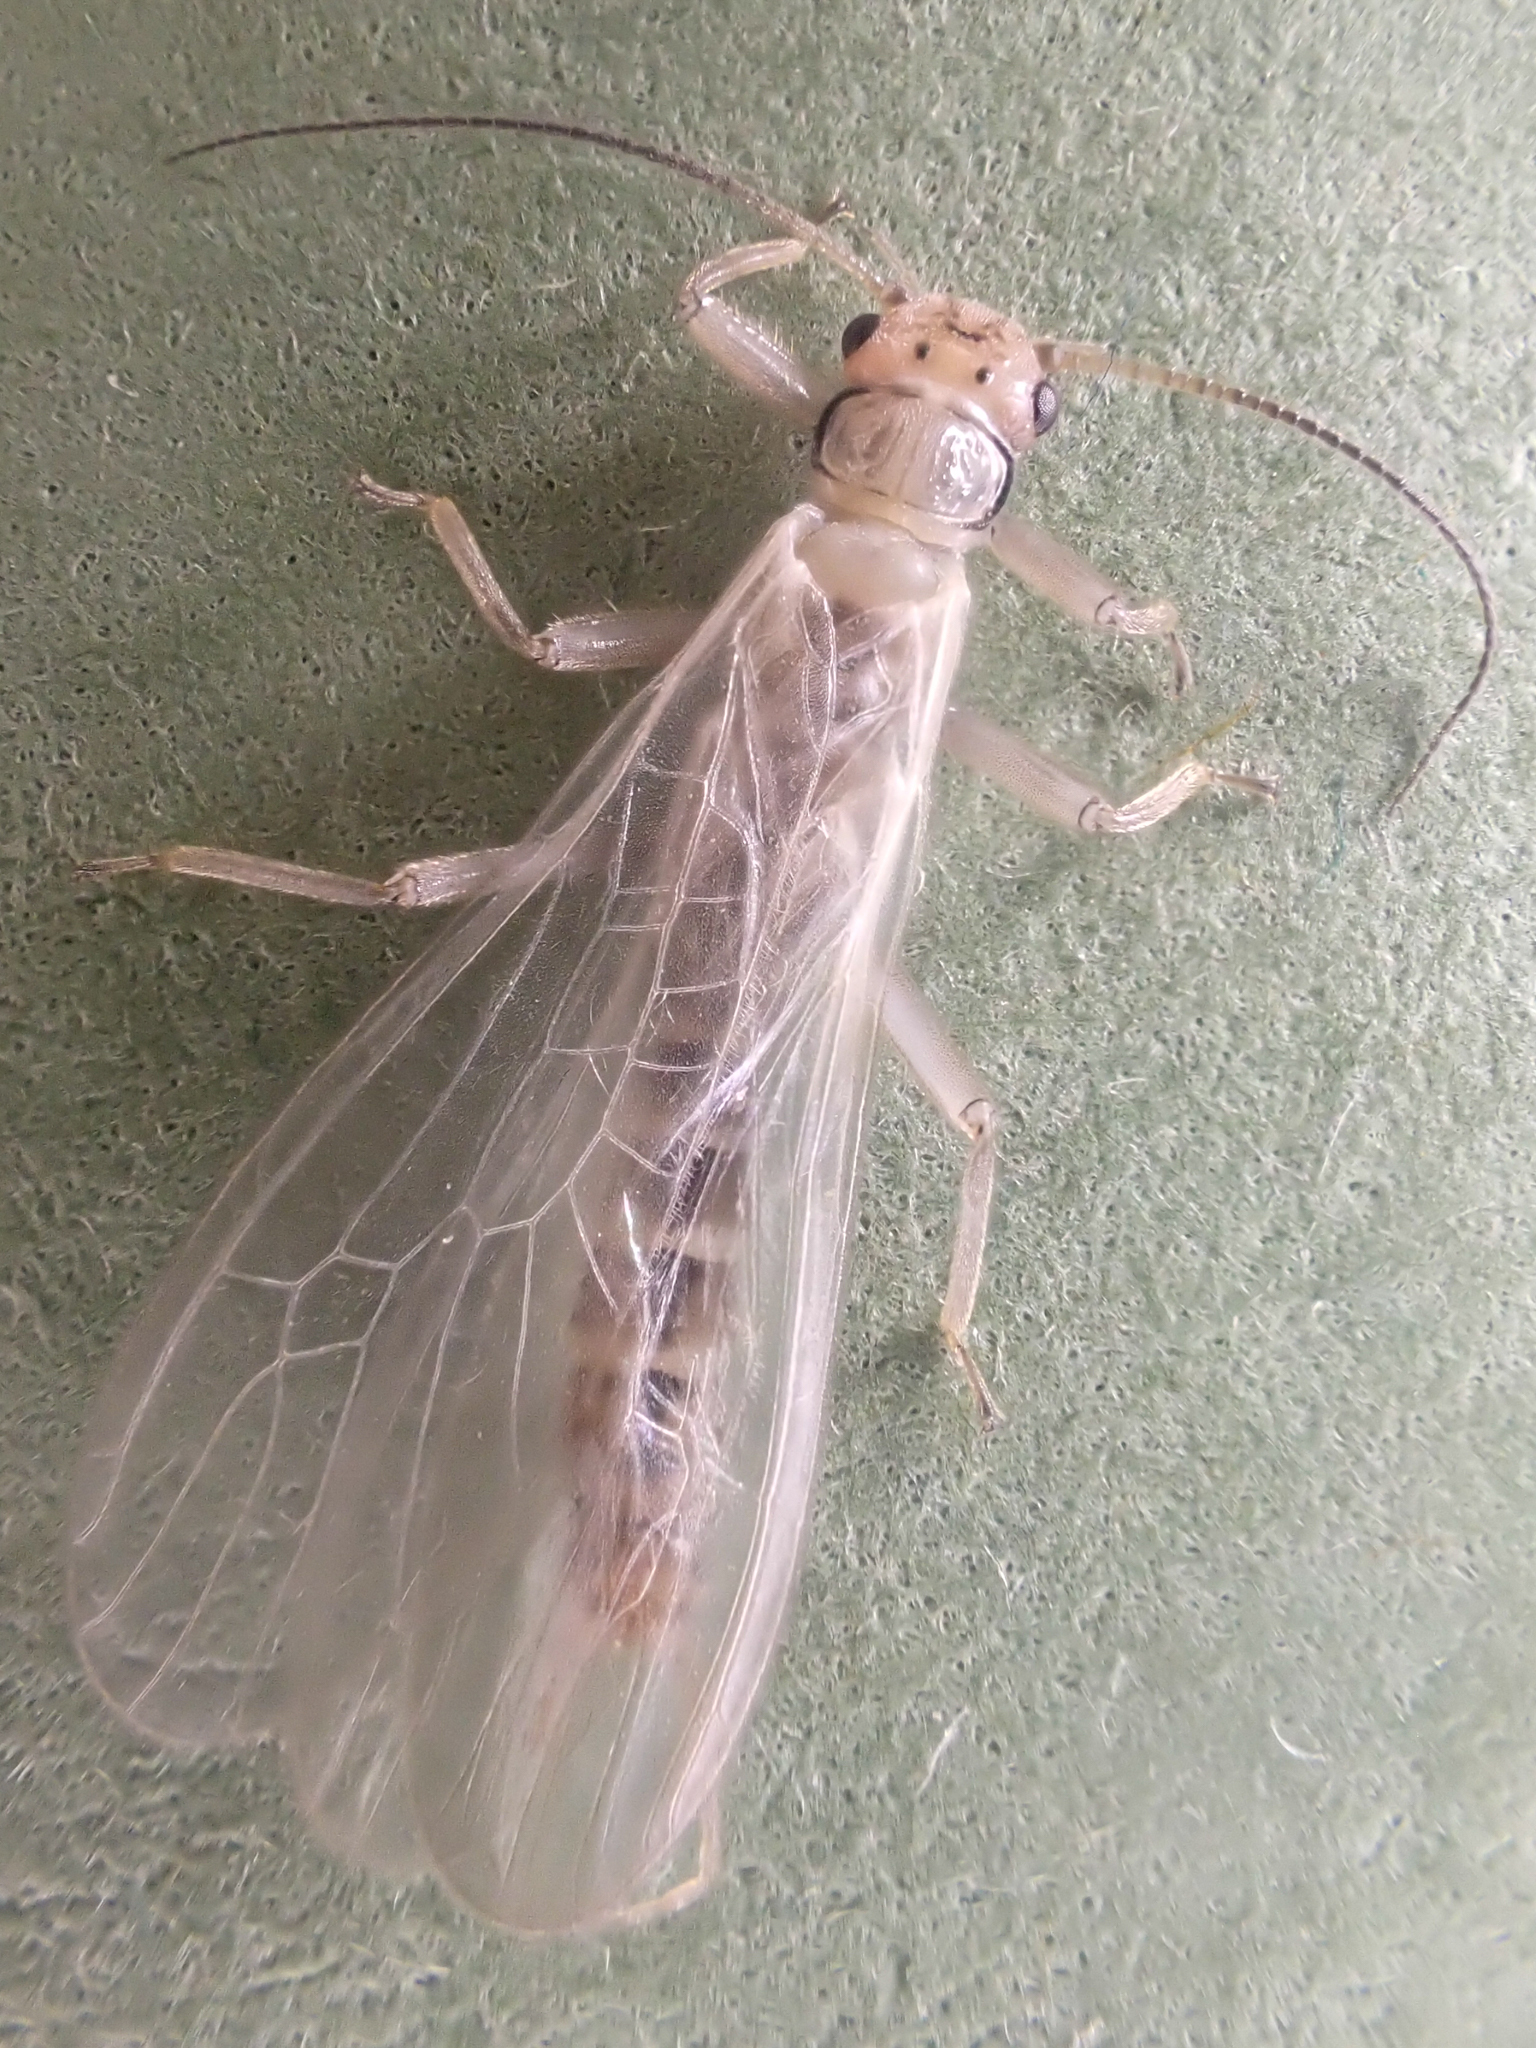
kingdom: Animalia
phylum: Arthropoda
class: Insecta
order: Plecoptera
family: Chloroperlidae
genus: Sweltsa
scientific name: Sweltsa fidelis
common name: Mountain sallfly
